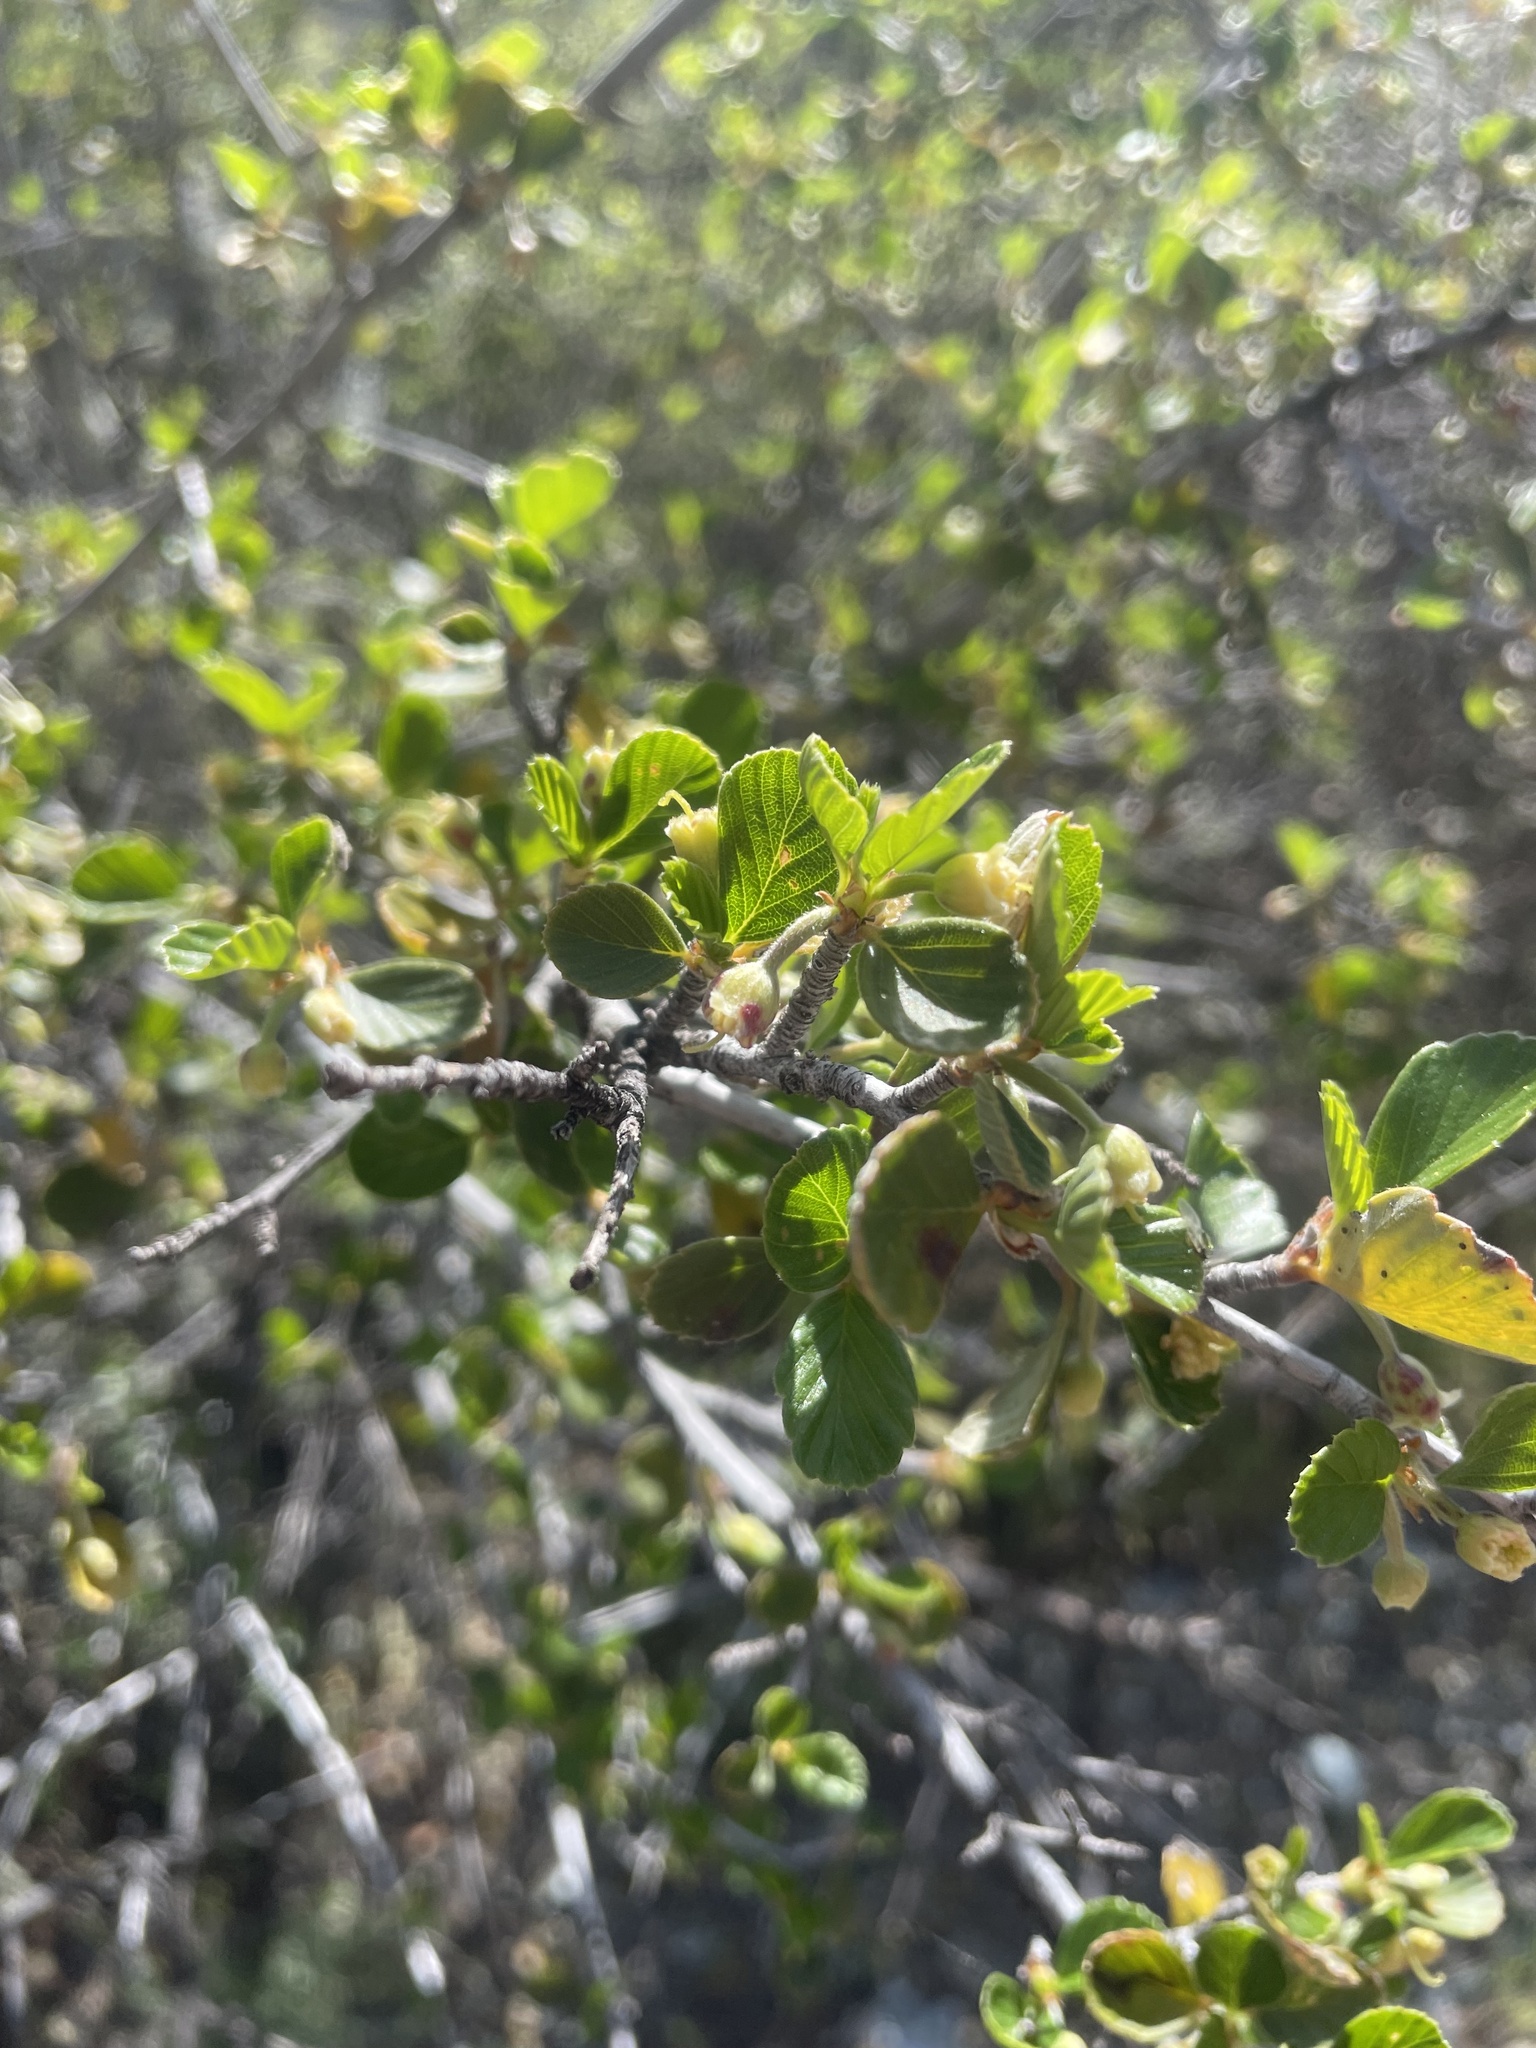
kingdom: Plantae
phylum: Tracheophyta
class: Magnoliopsida
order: Rosales
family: Rosaceae
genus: Cercocarpus
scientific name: Cercocarpus betuloides
